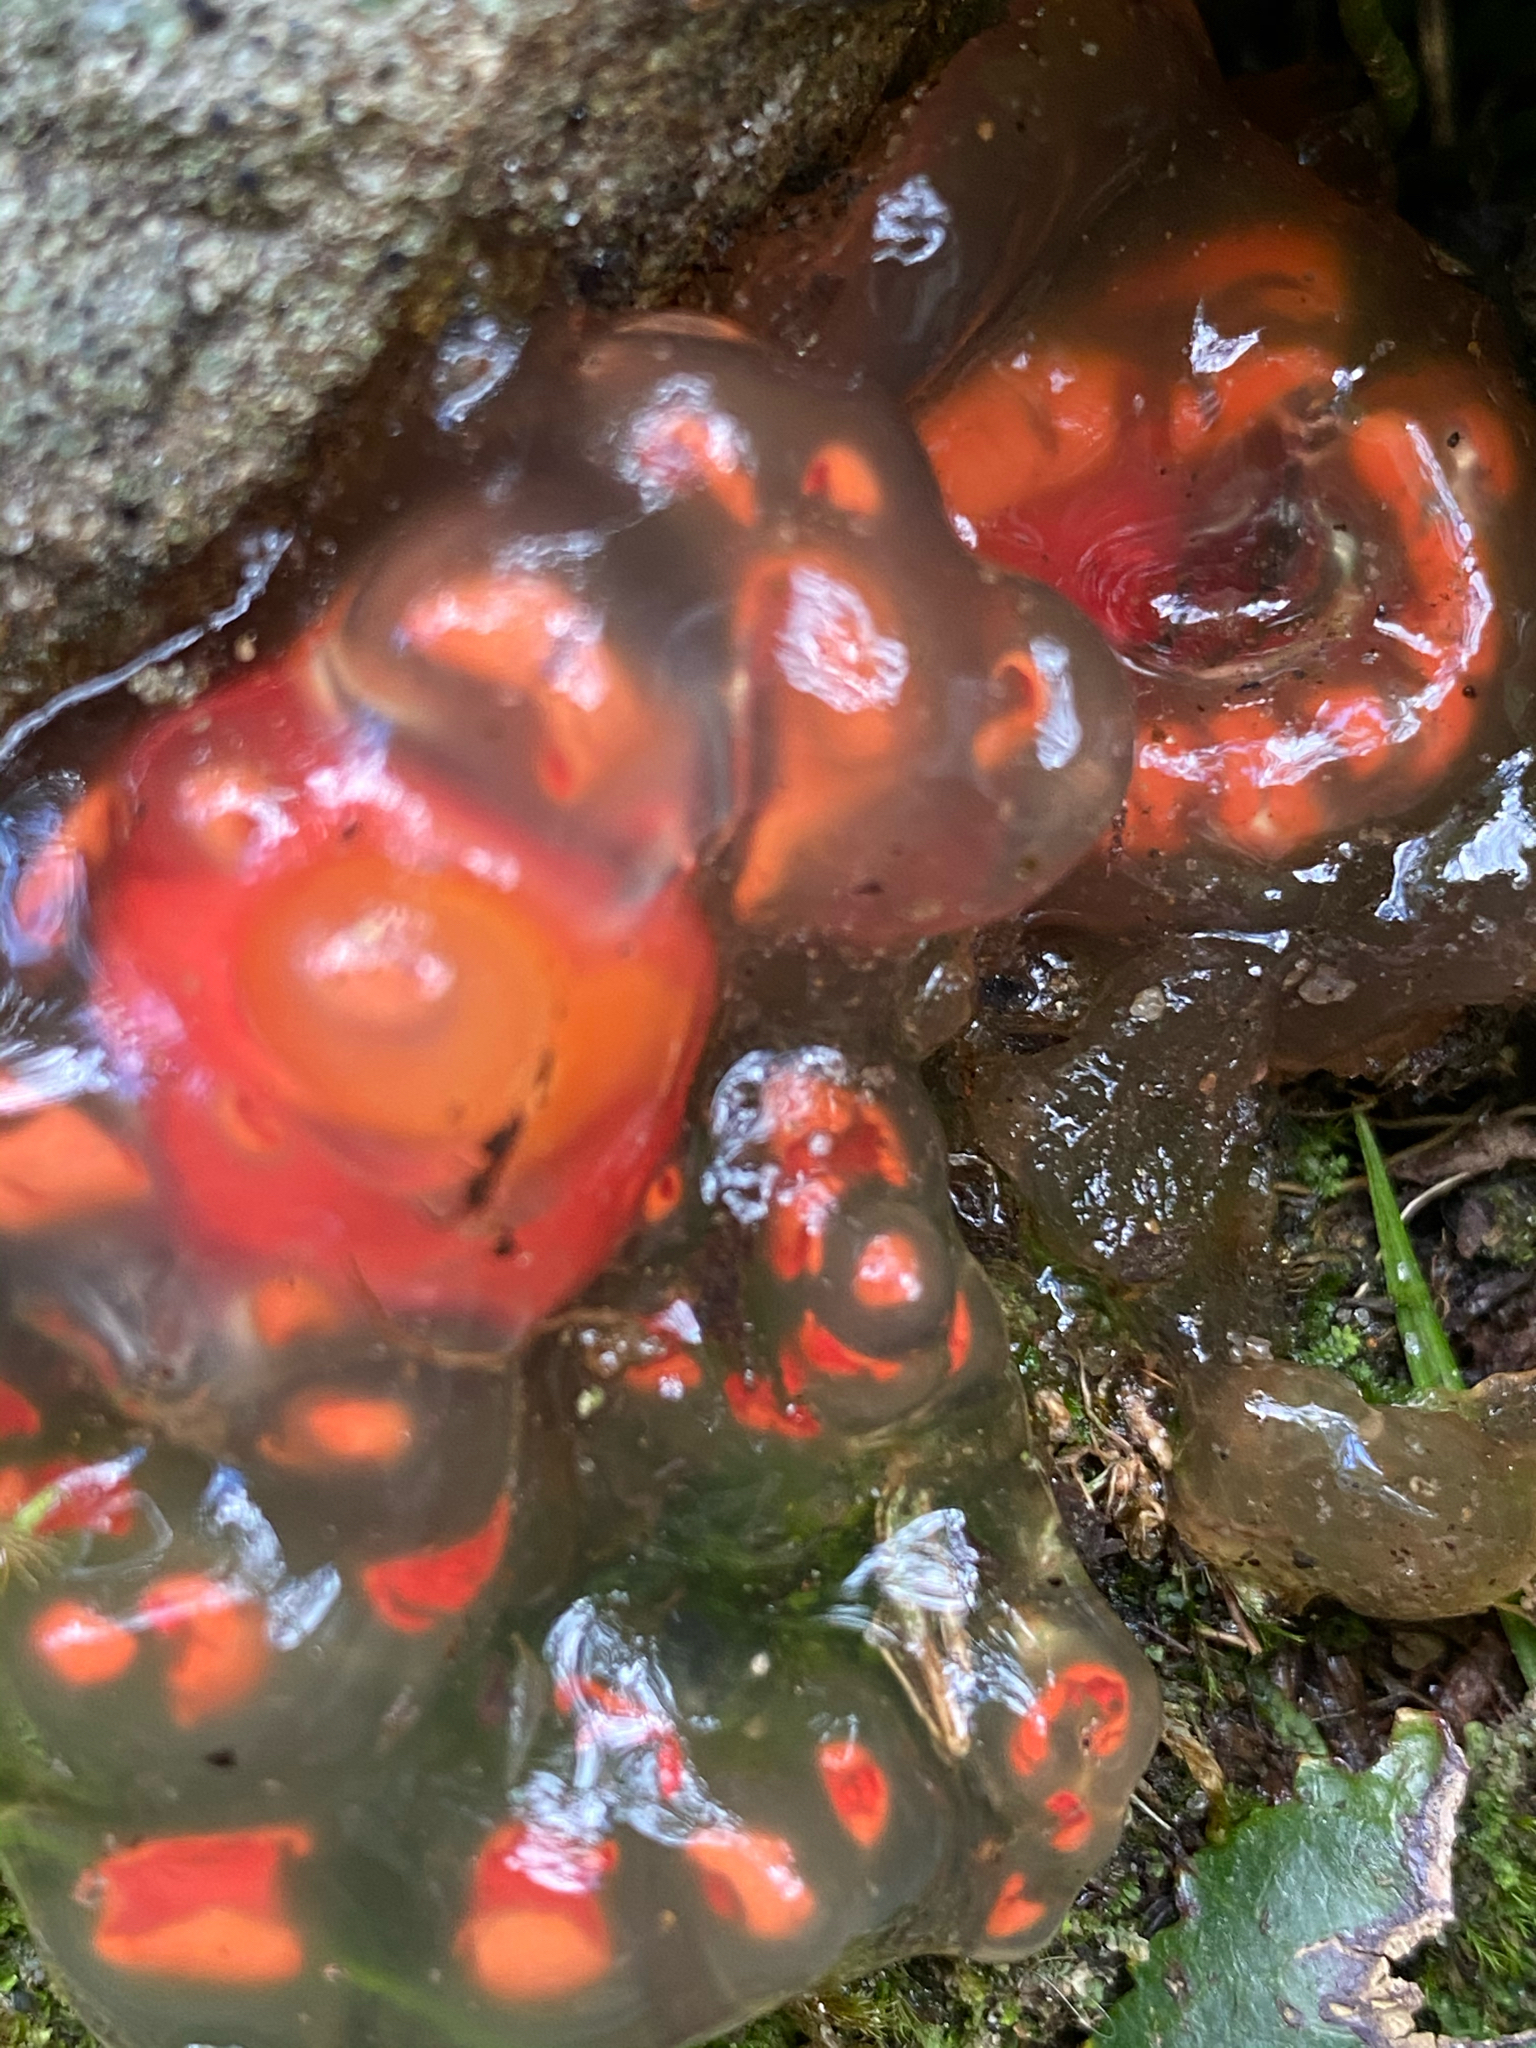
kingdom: Fungi
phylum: Basidiomycota
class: Agaricomycetes
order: Boletales
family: Calostomataceae
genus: Calostoma
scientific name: Calostoma cinnabarinum
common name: Stalked puffball-in-aspic
